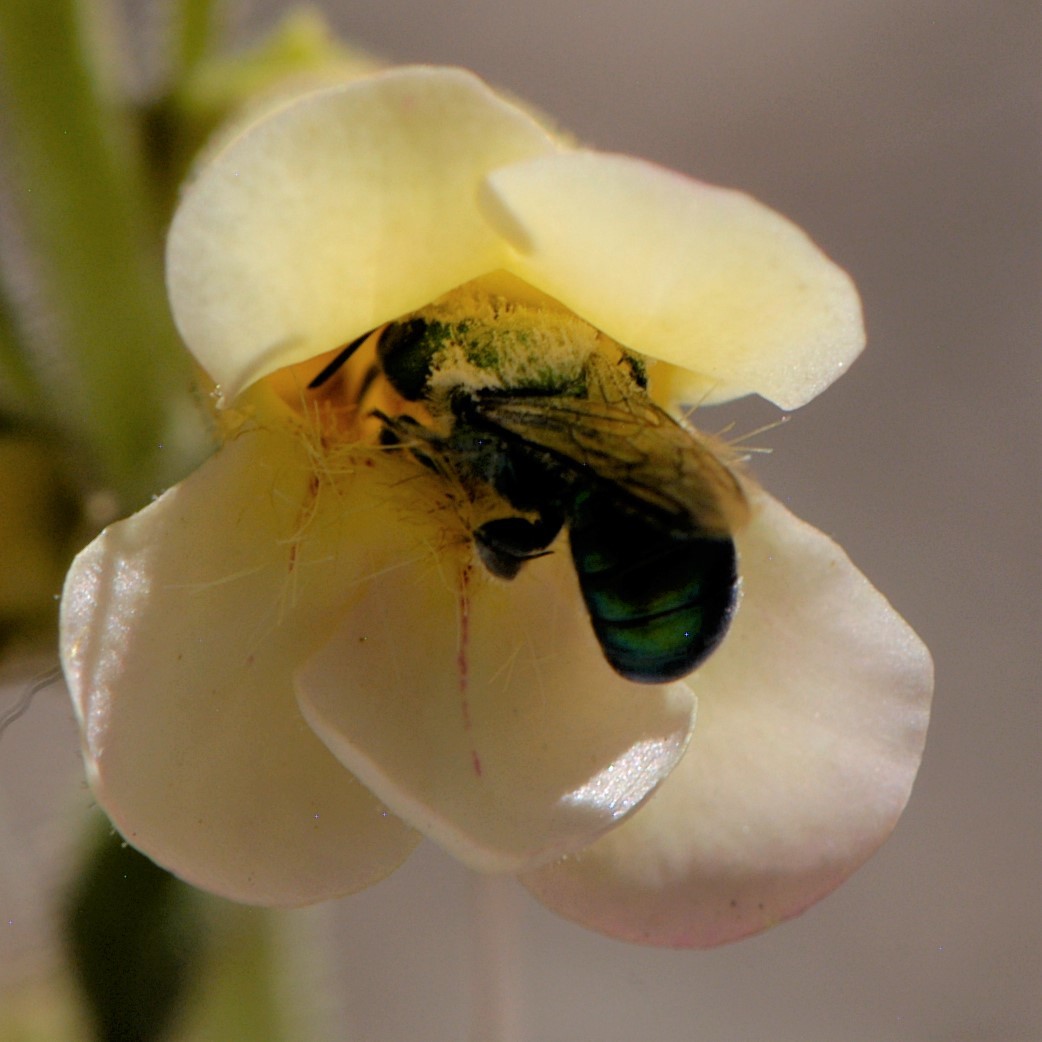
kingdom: Animalia
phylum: Arthropoda
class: Insecta
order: Hymenoptera
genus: Melanosmia
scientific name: Melanosmia
